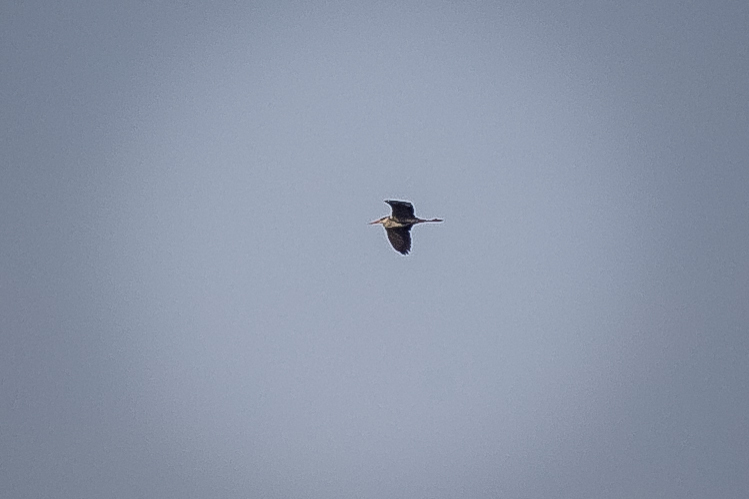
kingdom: Animalia
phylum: Chordata
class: Aves
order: Pelecaniformes
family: Ardeidae
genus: Ardea
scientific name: Ardea cinerea
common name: Grey heron
